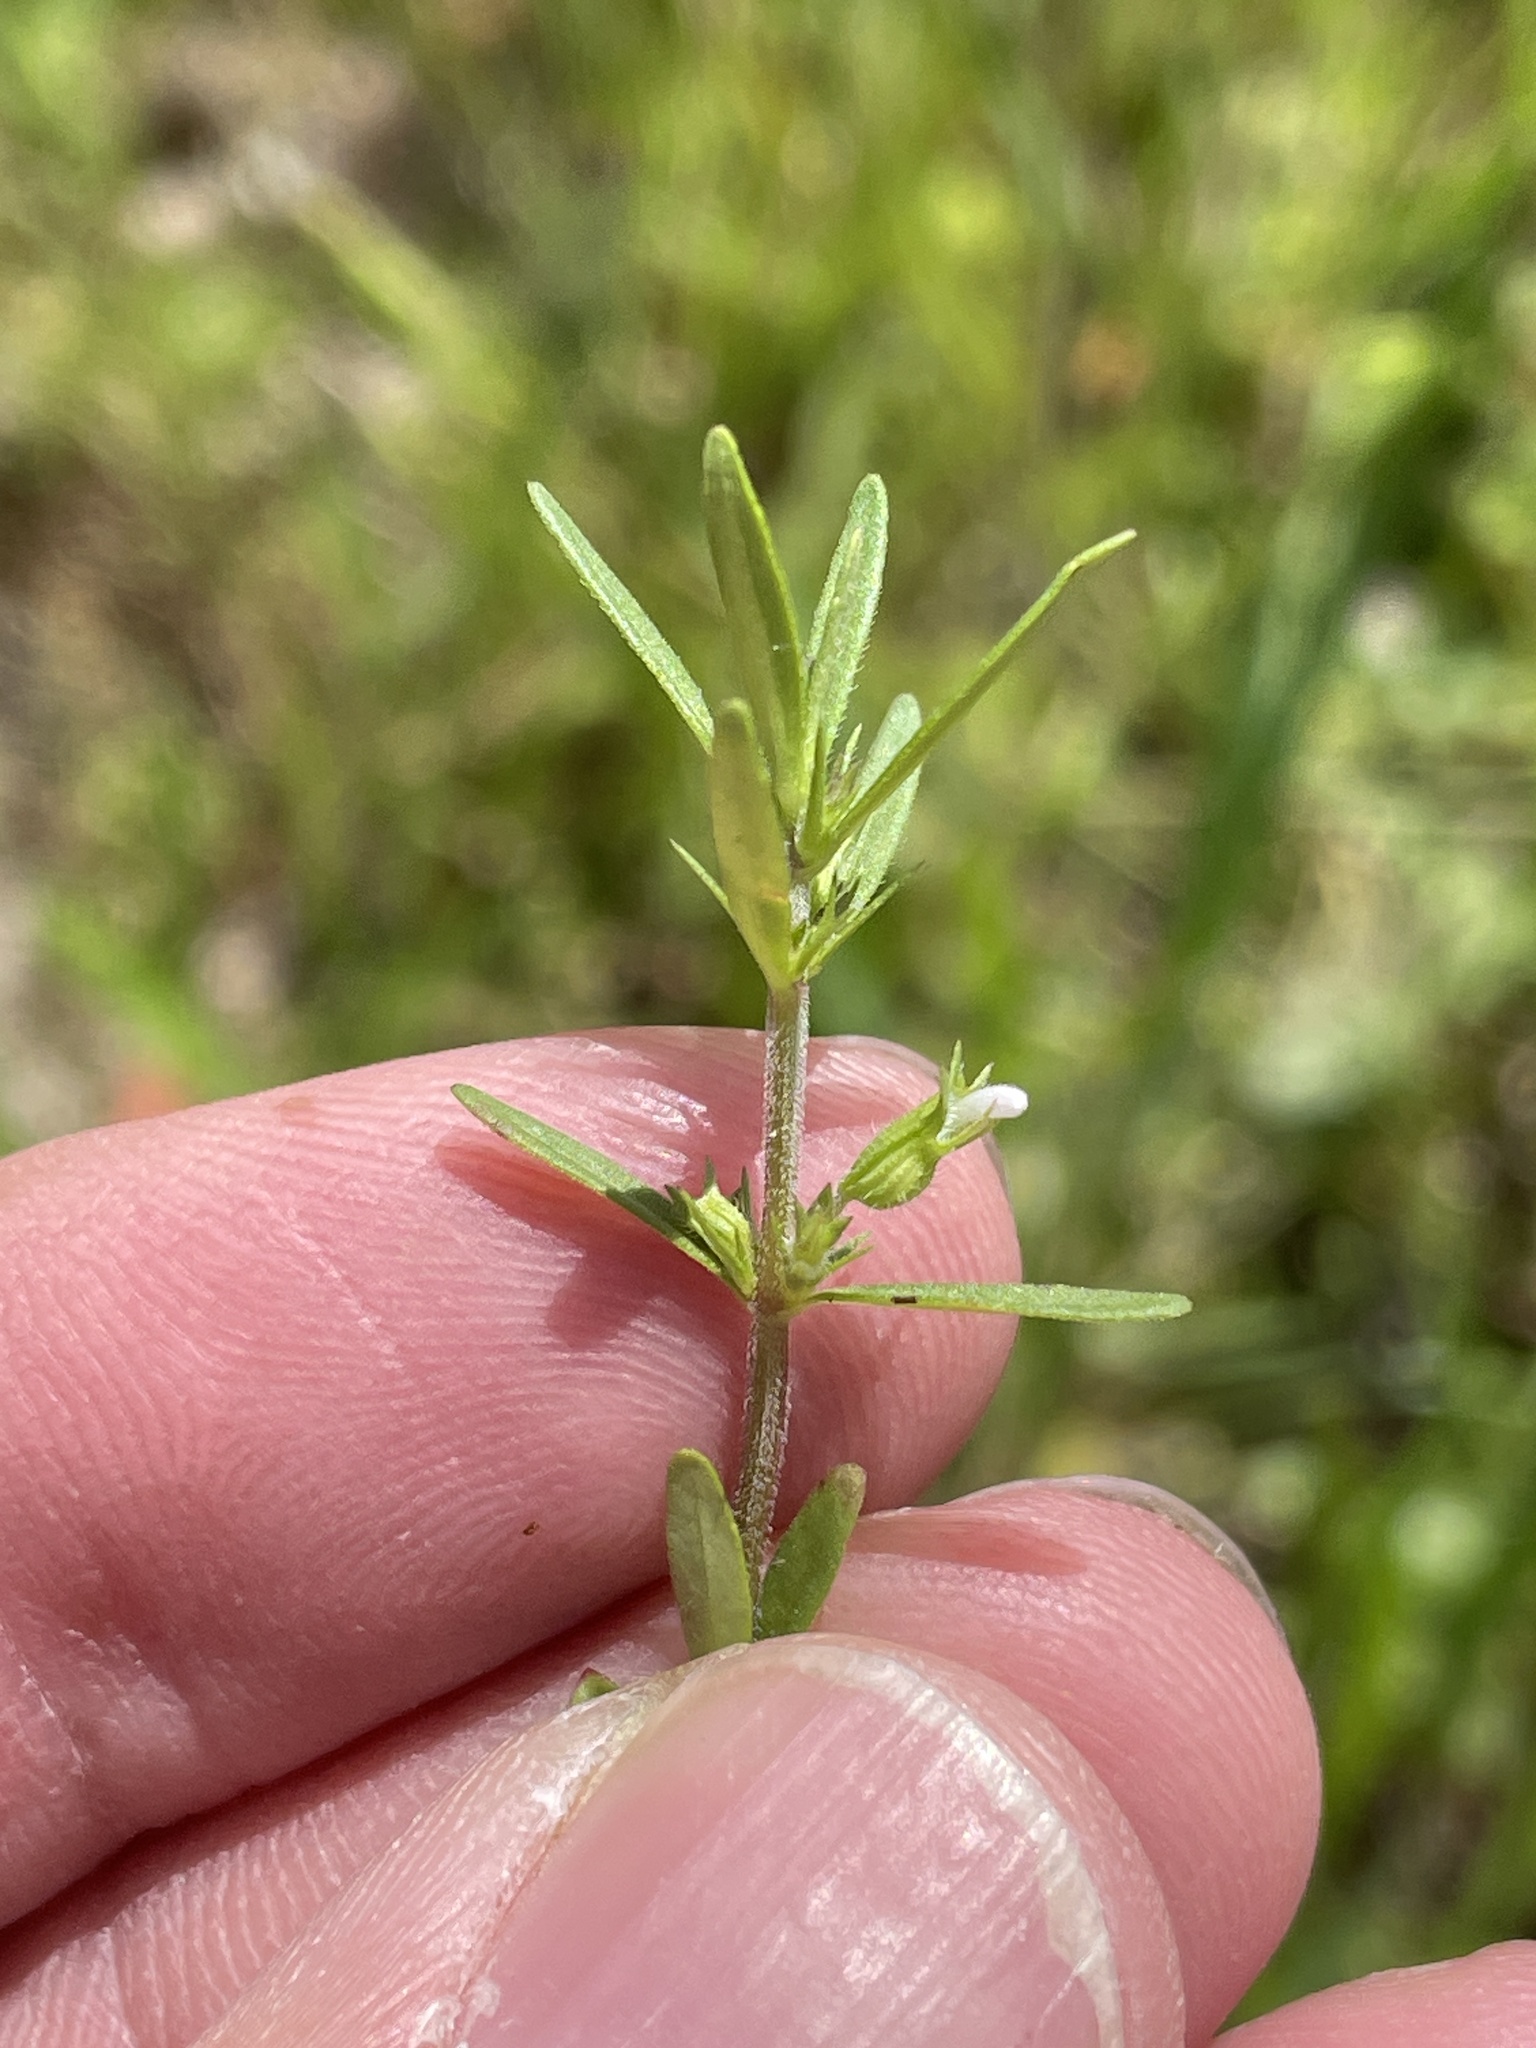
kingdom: Plantae
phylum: Tracheophyta
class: Magnoliopsida
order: Lamiales
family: Lamiaceae
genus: Hedeoma
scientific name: Hedeoma hispida
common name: Mock pennyroyal
